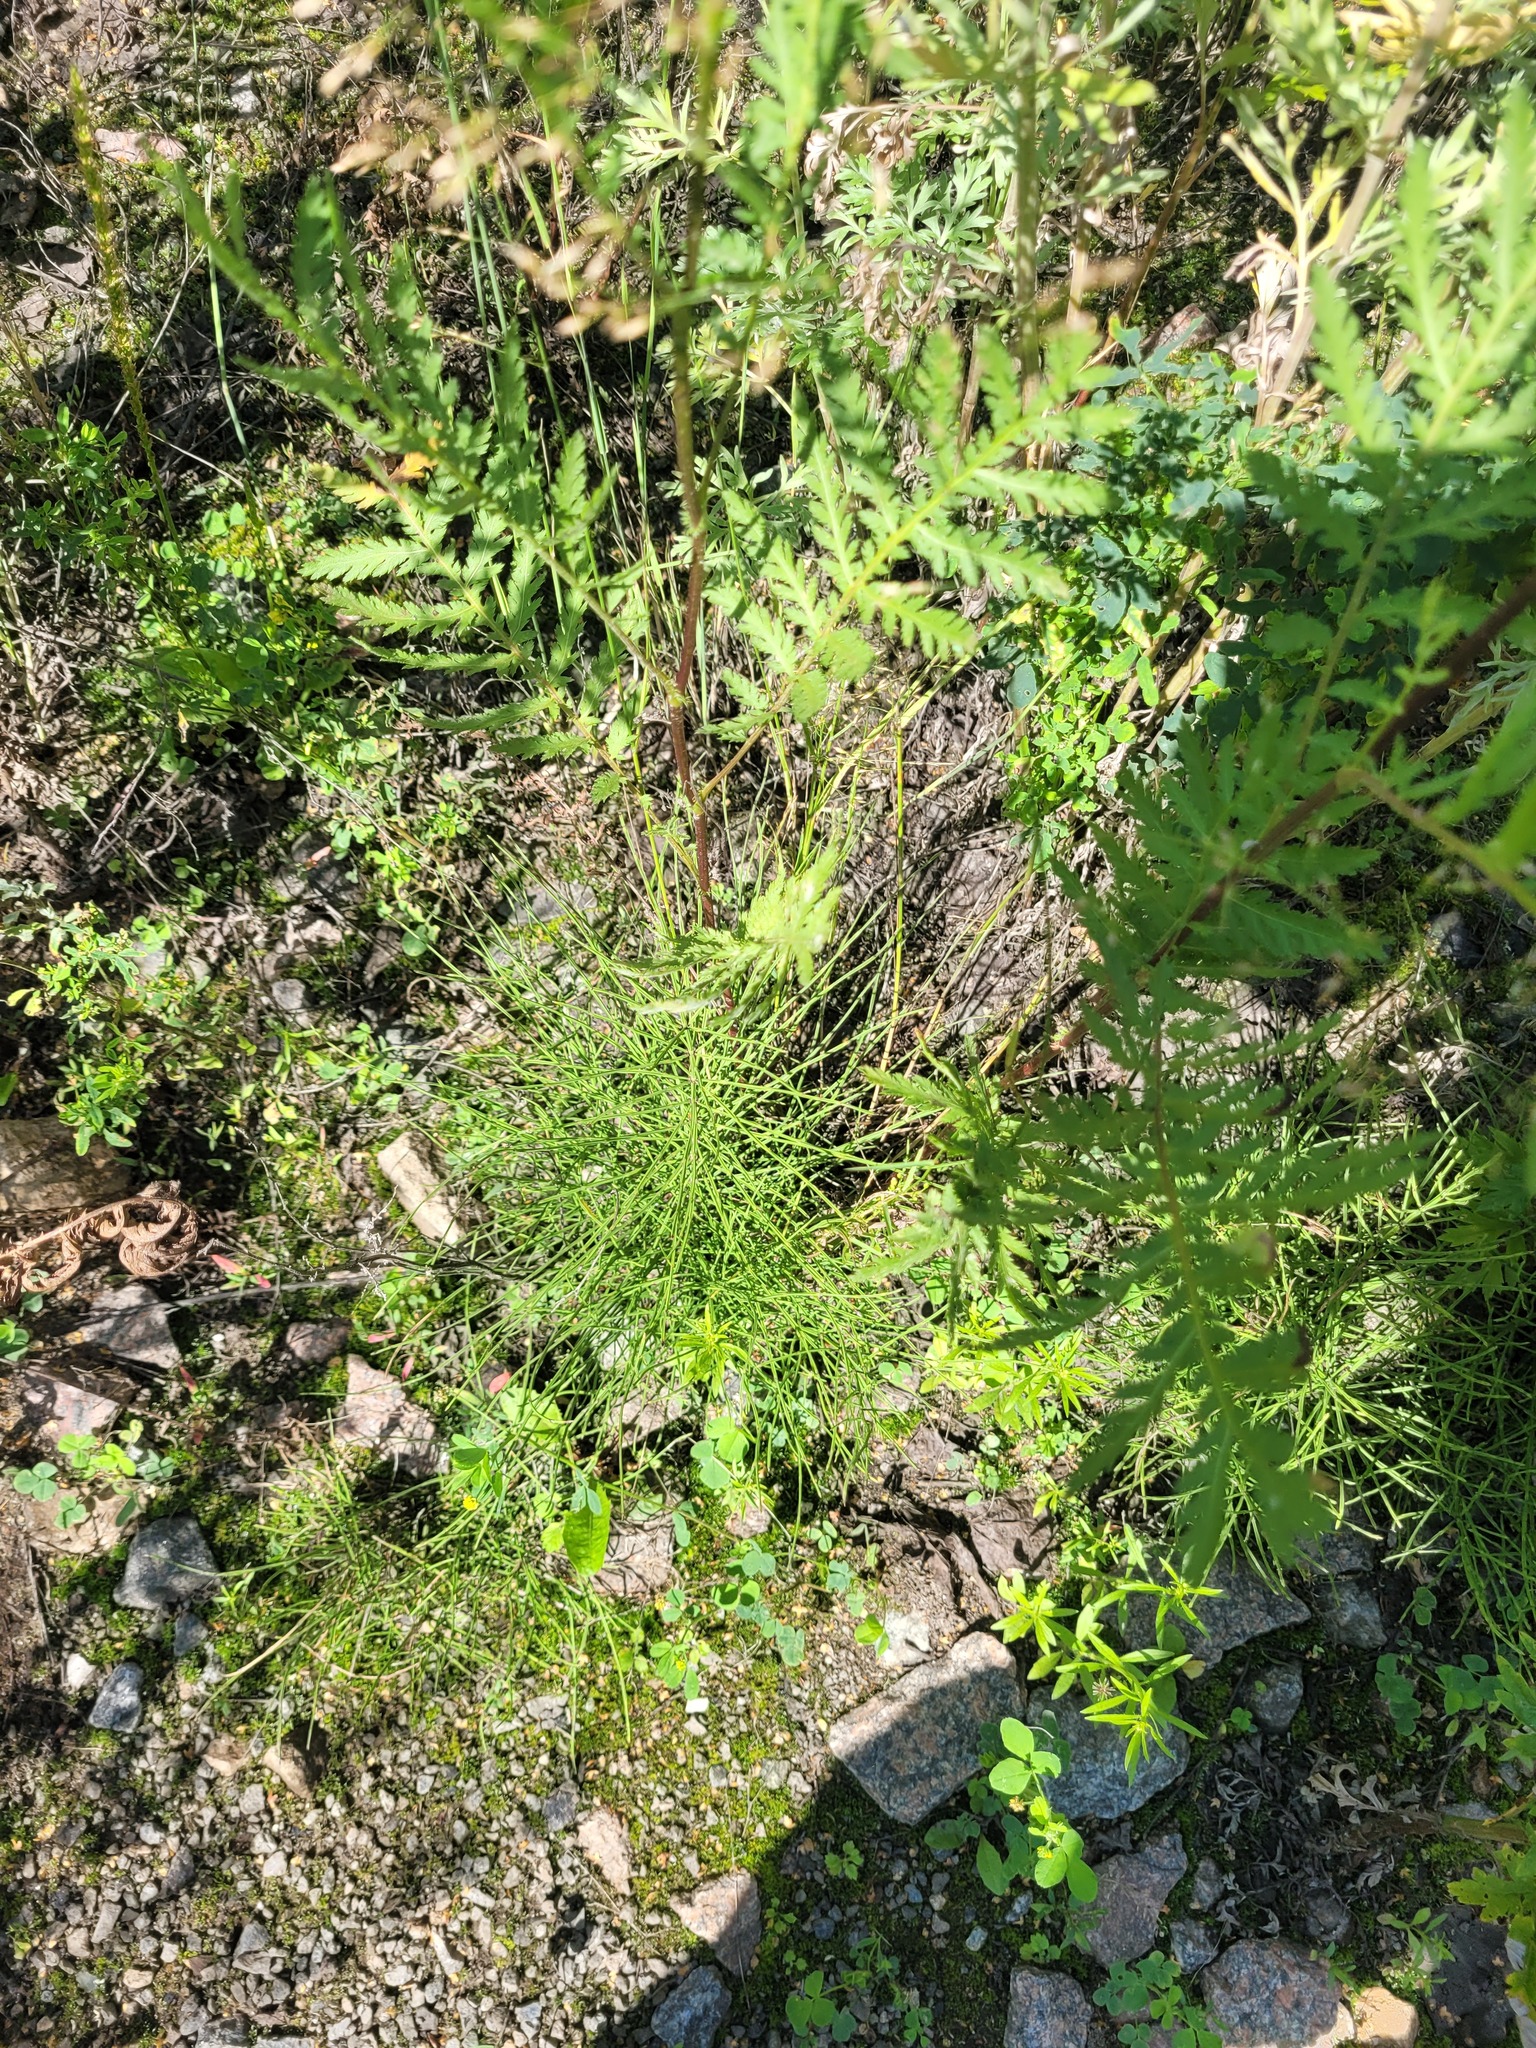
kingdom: Plantae
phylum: Tracheophyta
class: Polypodiopsida
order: Equisetales
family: Equisetaceae
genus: Equisetum
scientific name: Equisetum arvense
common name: Field horsetail
